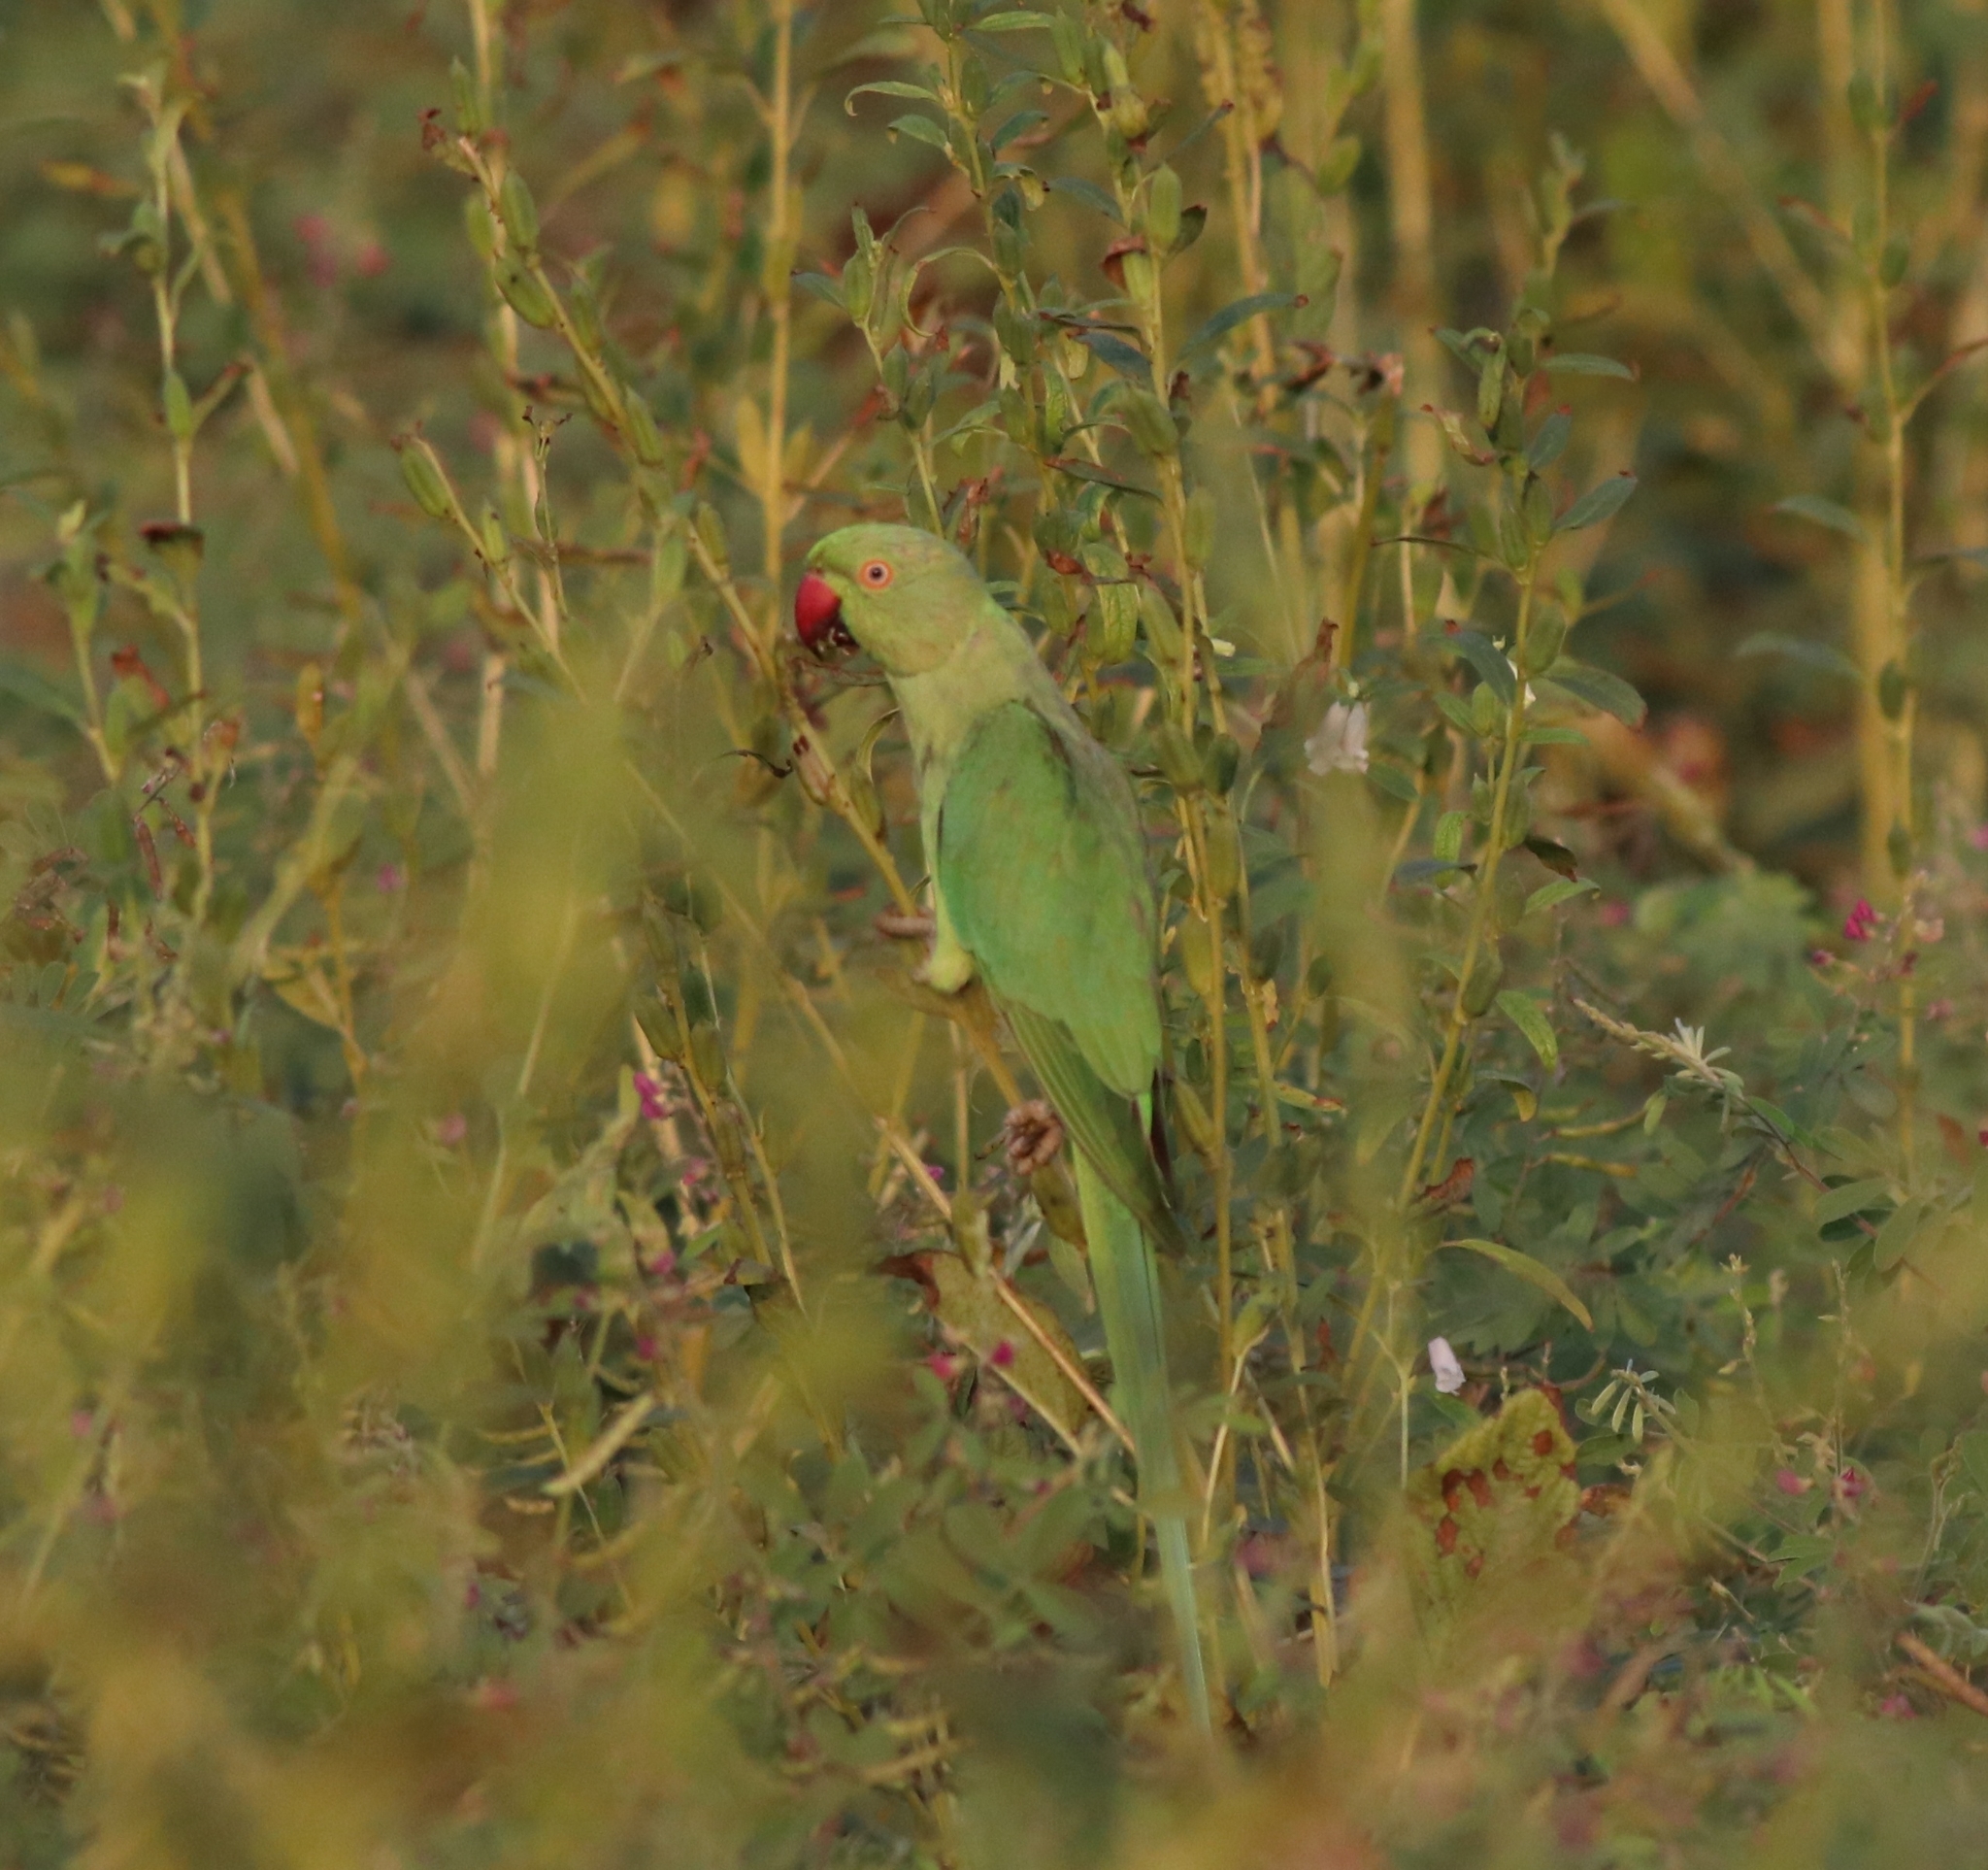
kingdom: Animalia
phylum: Chordata
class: Aves
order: Psittaciformes
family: Psittacidae
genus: Psittacula
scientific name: Psittacula krameri
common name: Rose-ringed parakeet
